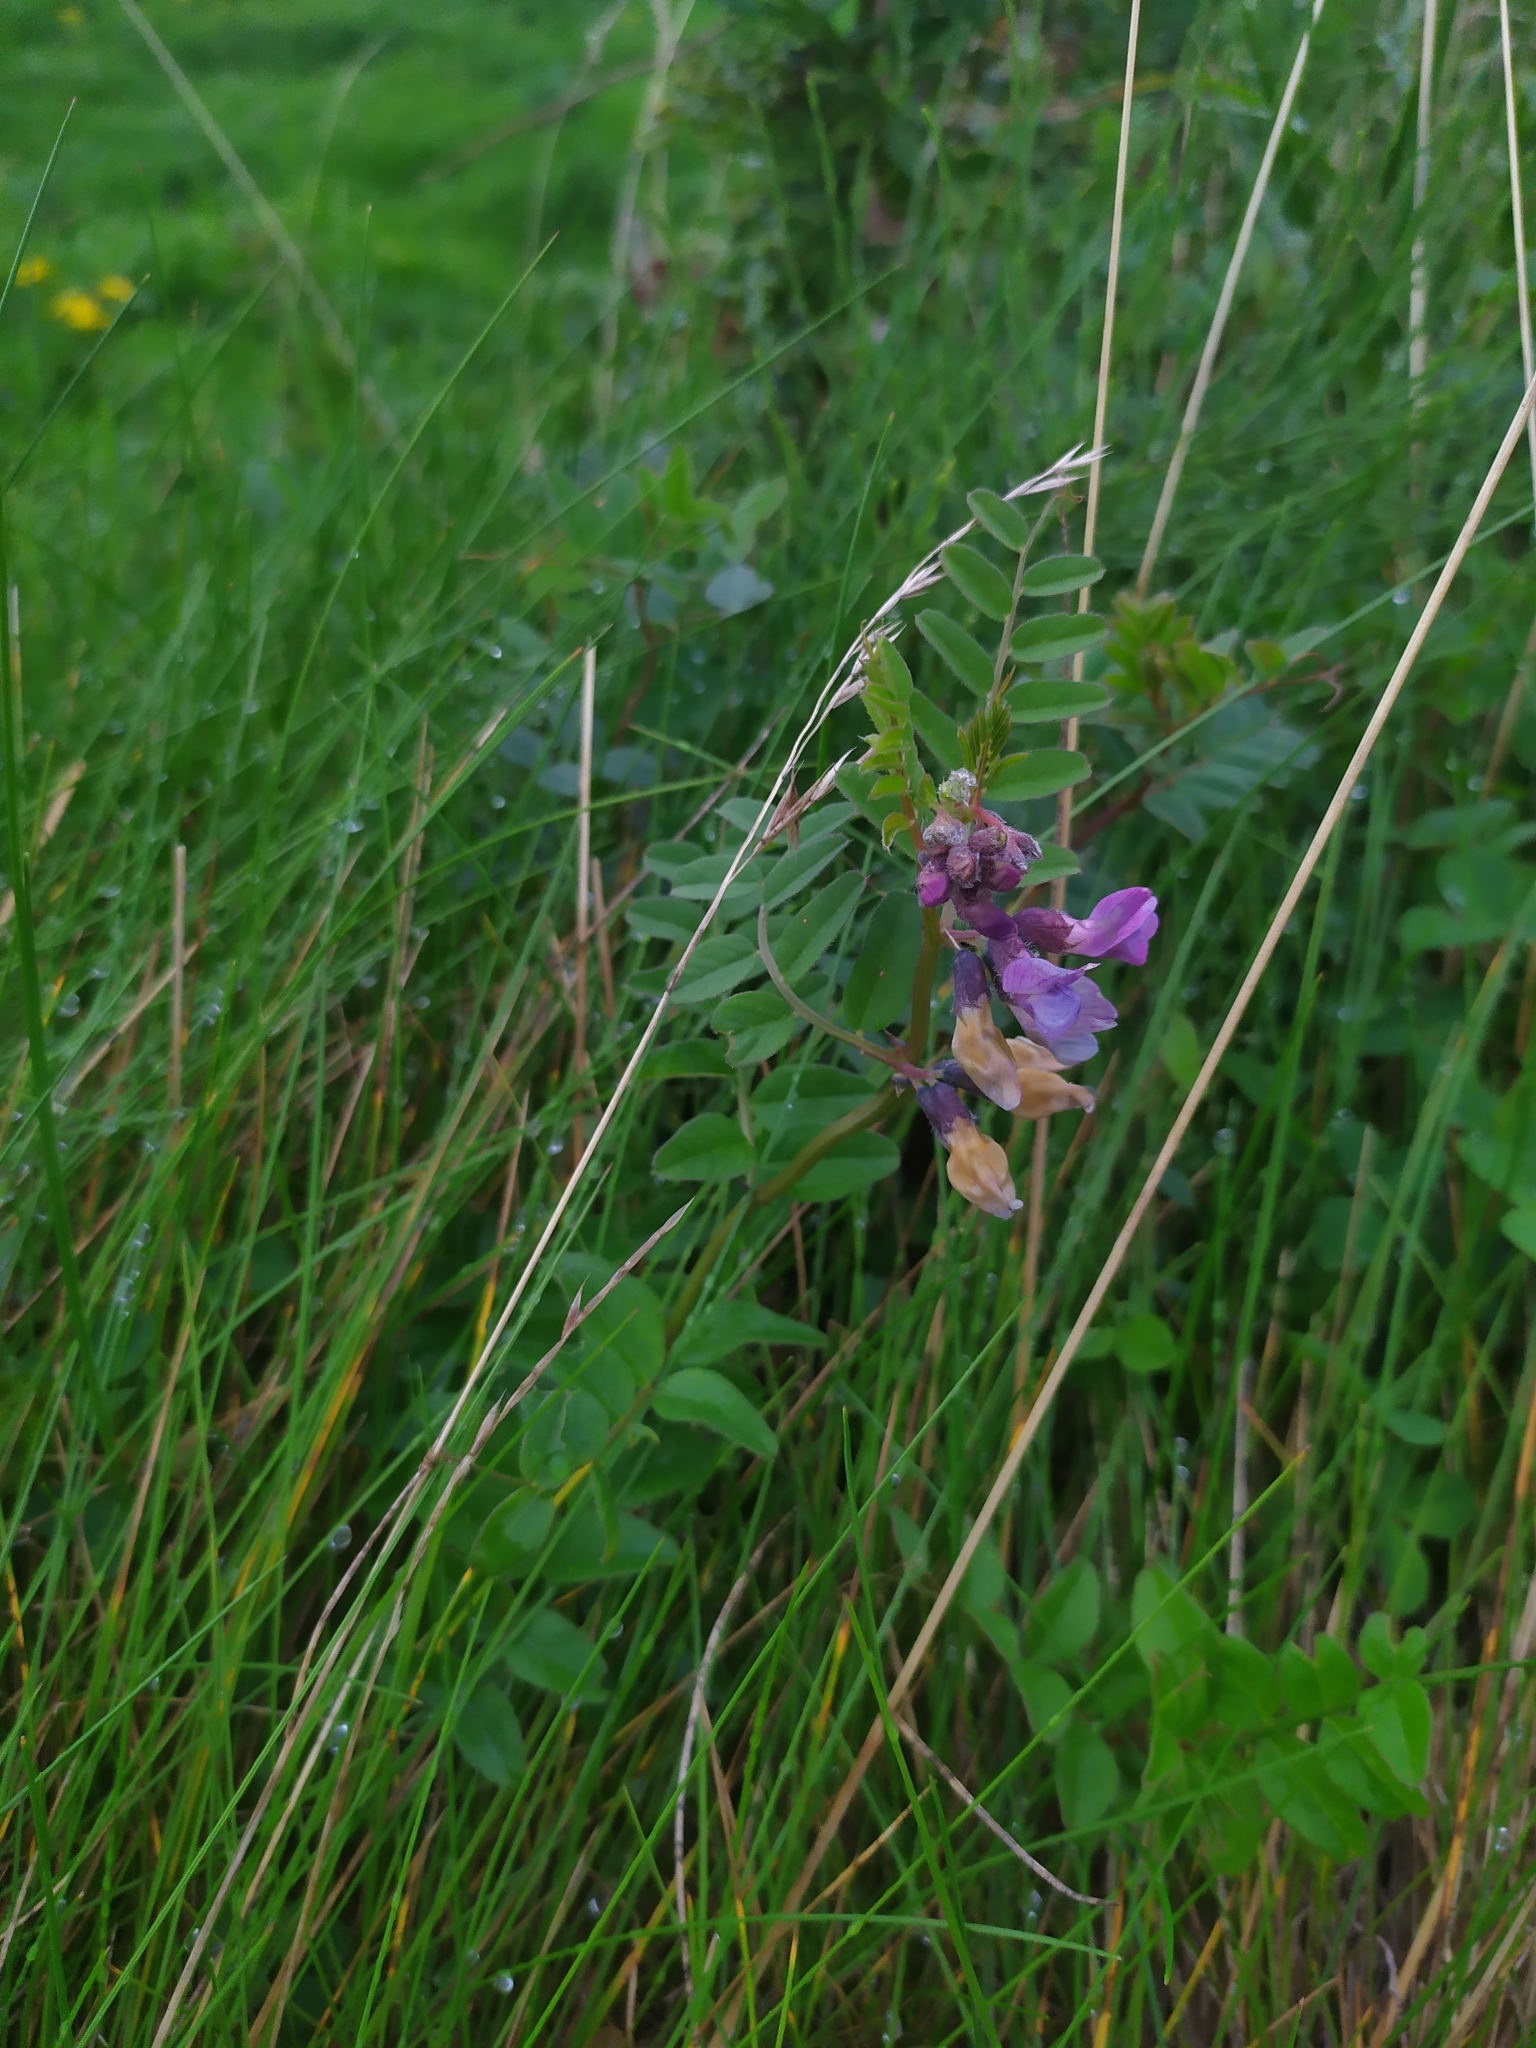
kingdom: Plantae
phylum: Tracheophyta
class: Magnoliopsida
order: Fabales
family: Fabaceae
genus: Vicia
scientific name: Vicia sepium
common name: Bush vetch
